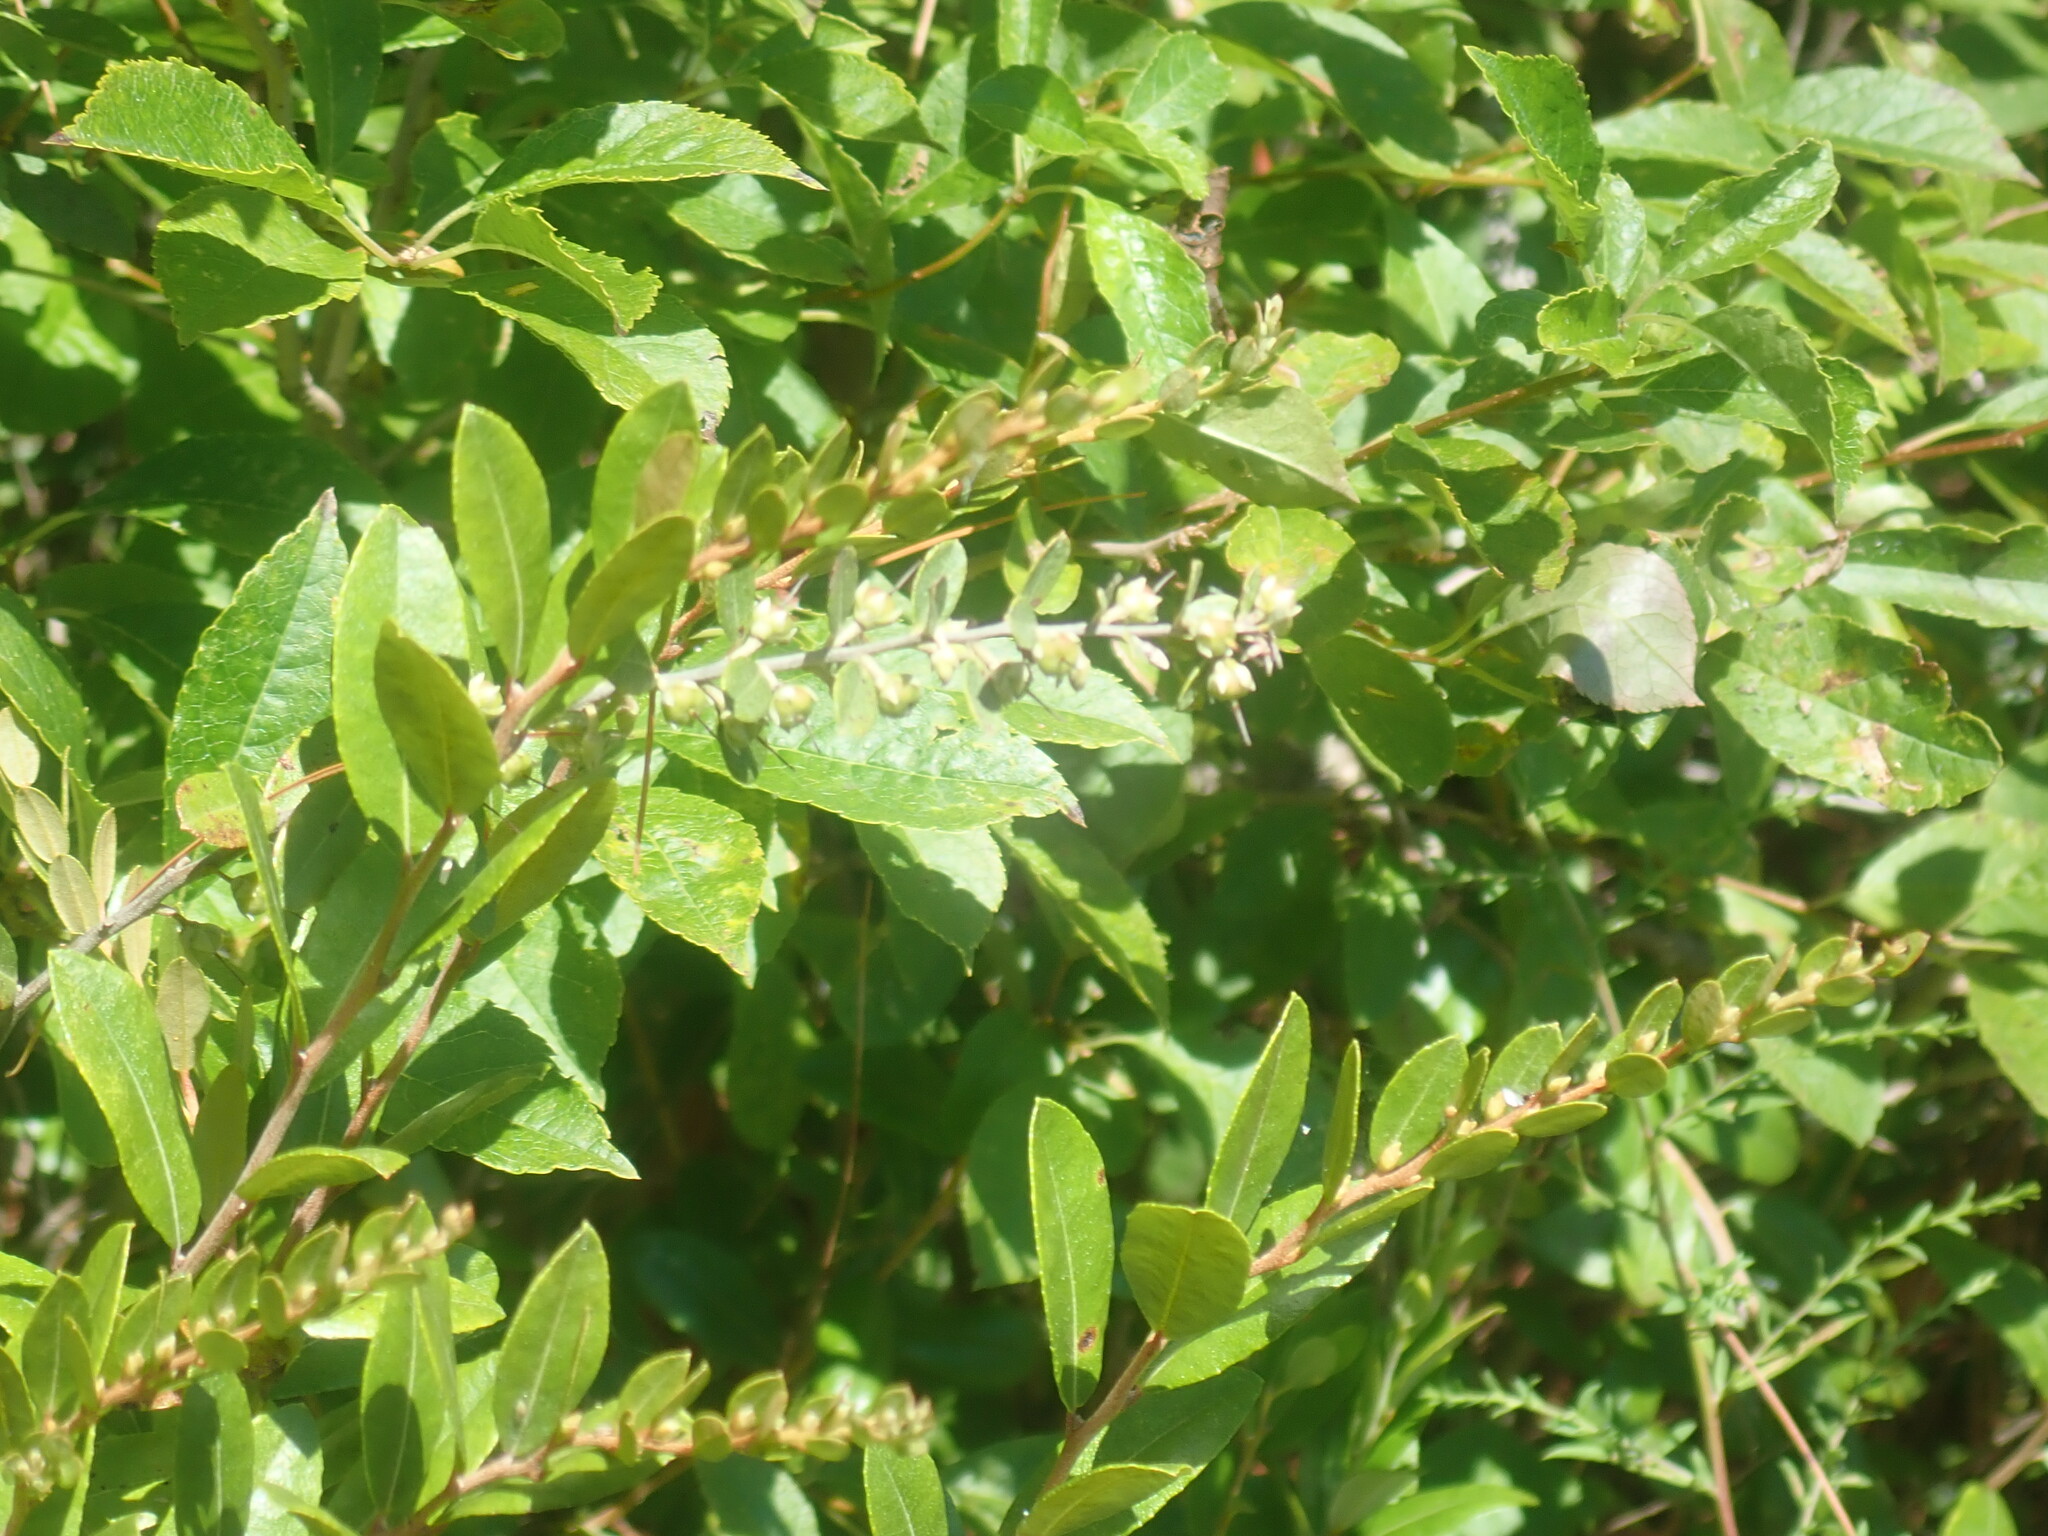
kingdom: Plantae
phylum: Tracheophyta
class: Magnoliopsida
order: Ericales
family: Ericaceae
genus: Chamaedaphne
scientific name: Chamaedaphne calyculata
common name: Leatherleaf
